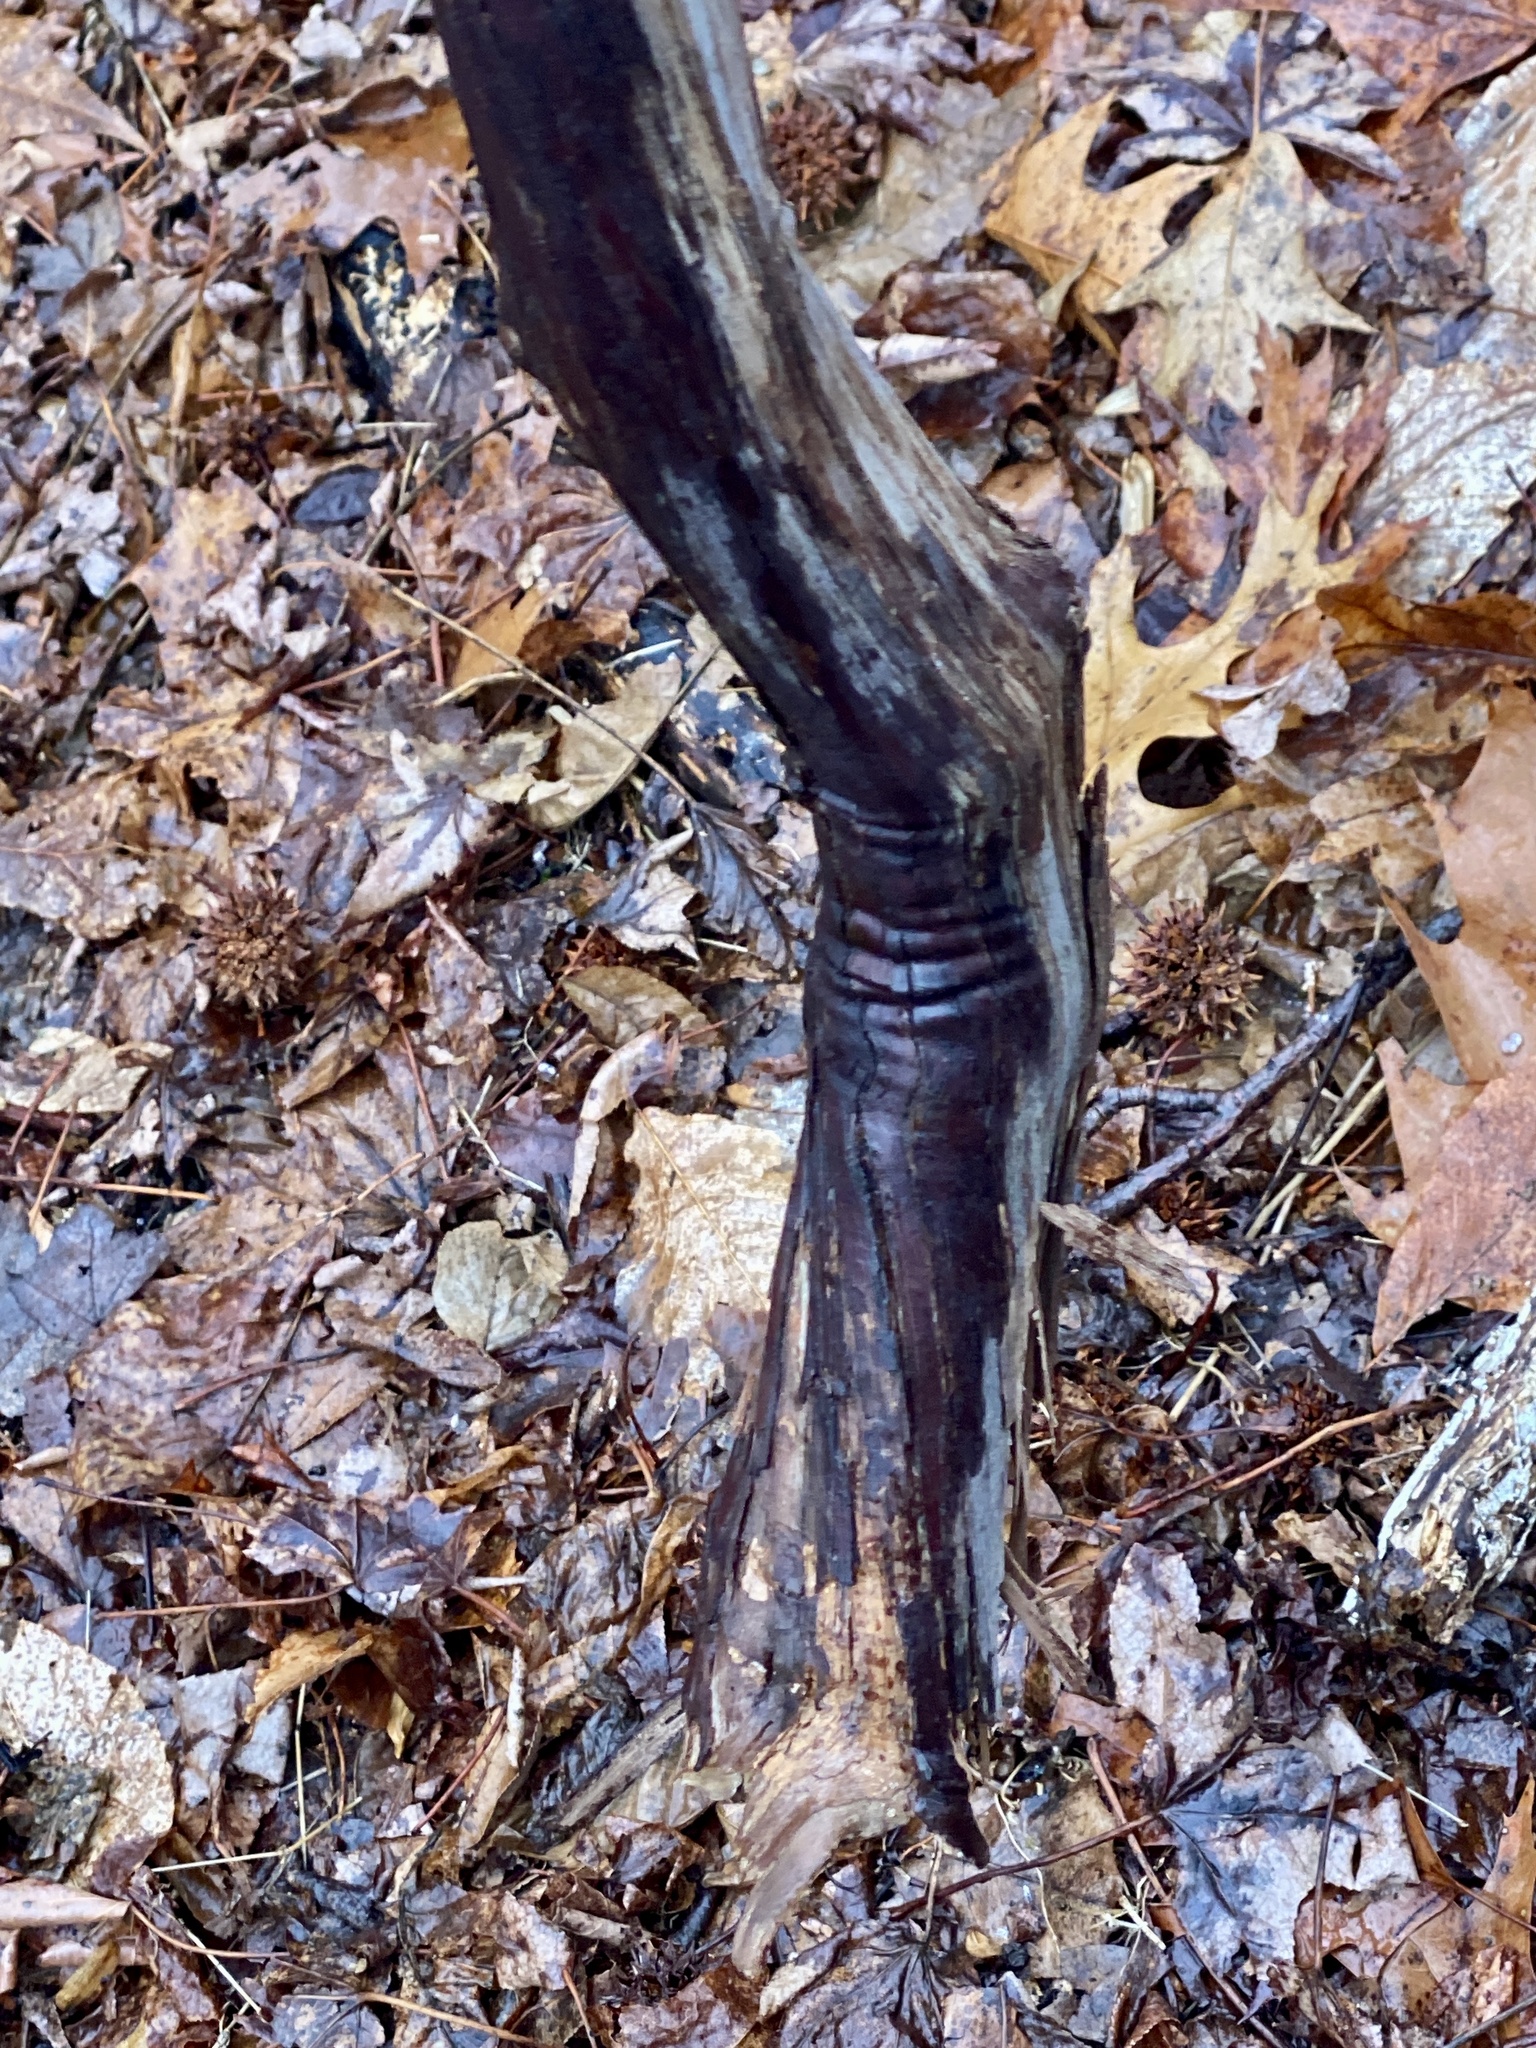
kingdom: Plantae
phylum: Tracheophyta
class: Magnoliopsida
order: Vitales
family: Vitaceae
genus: Vitis
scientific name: Vitis
